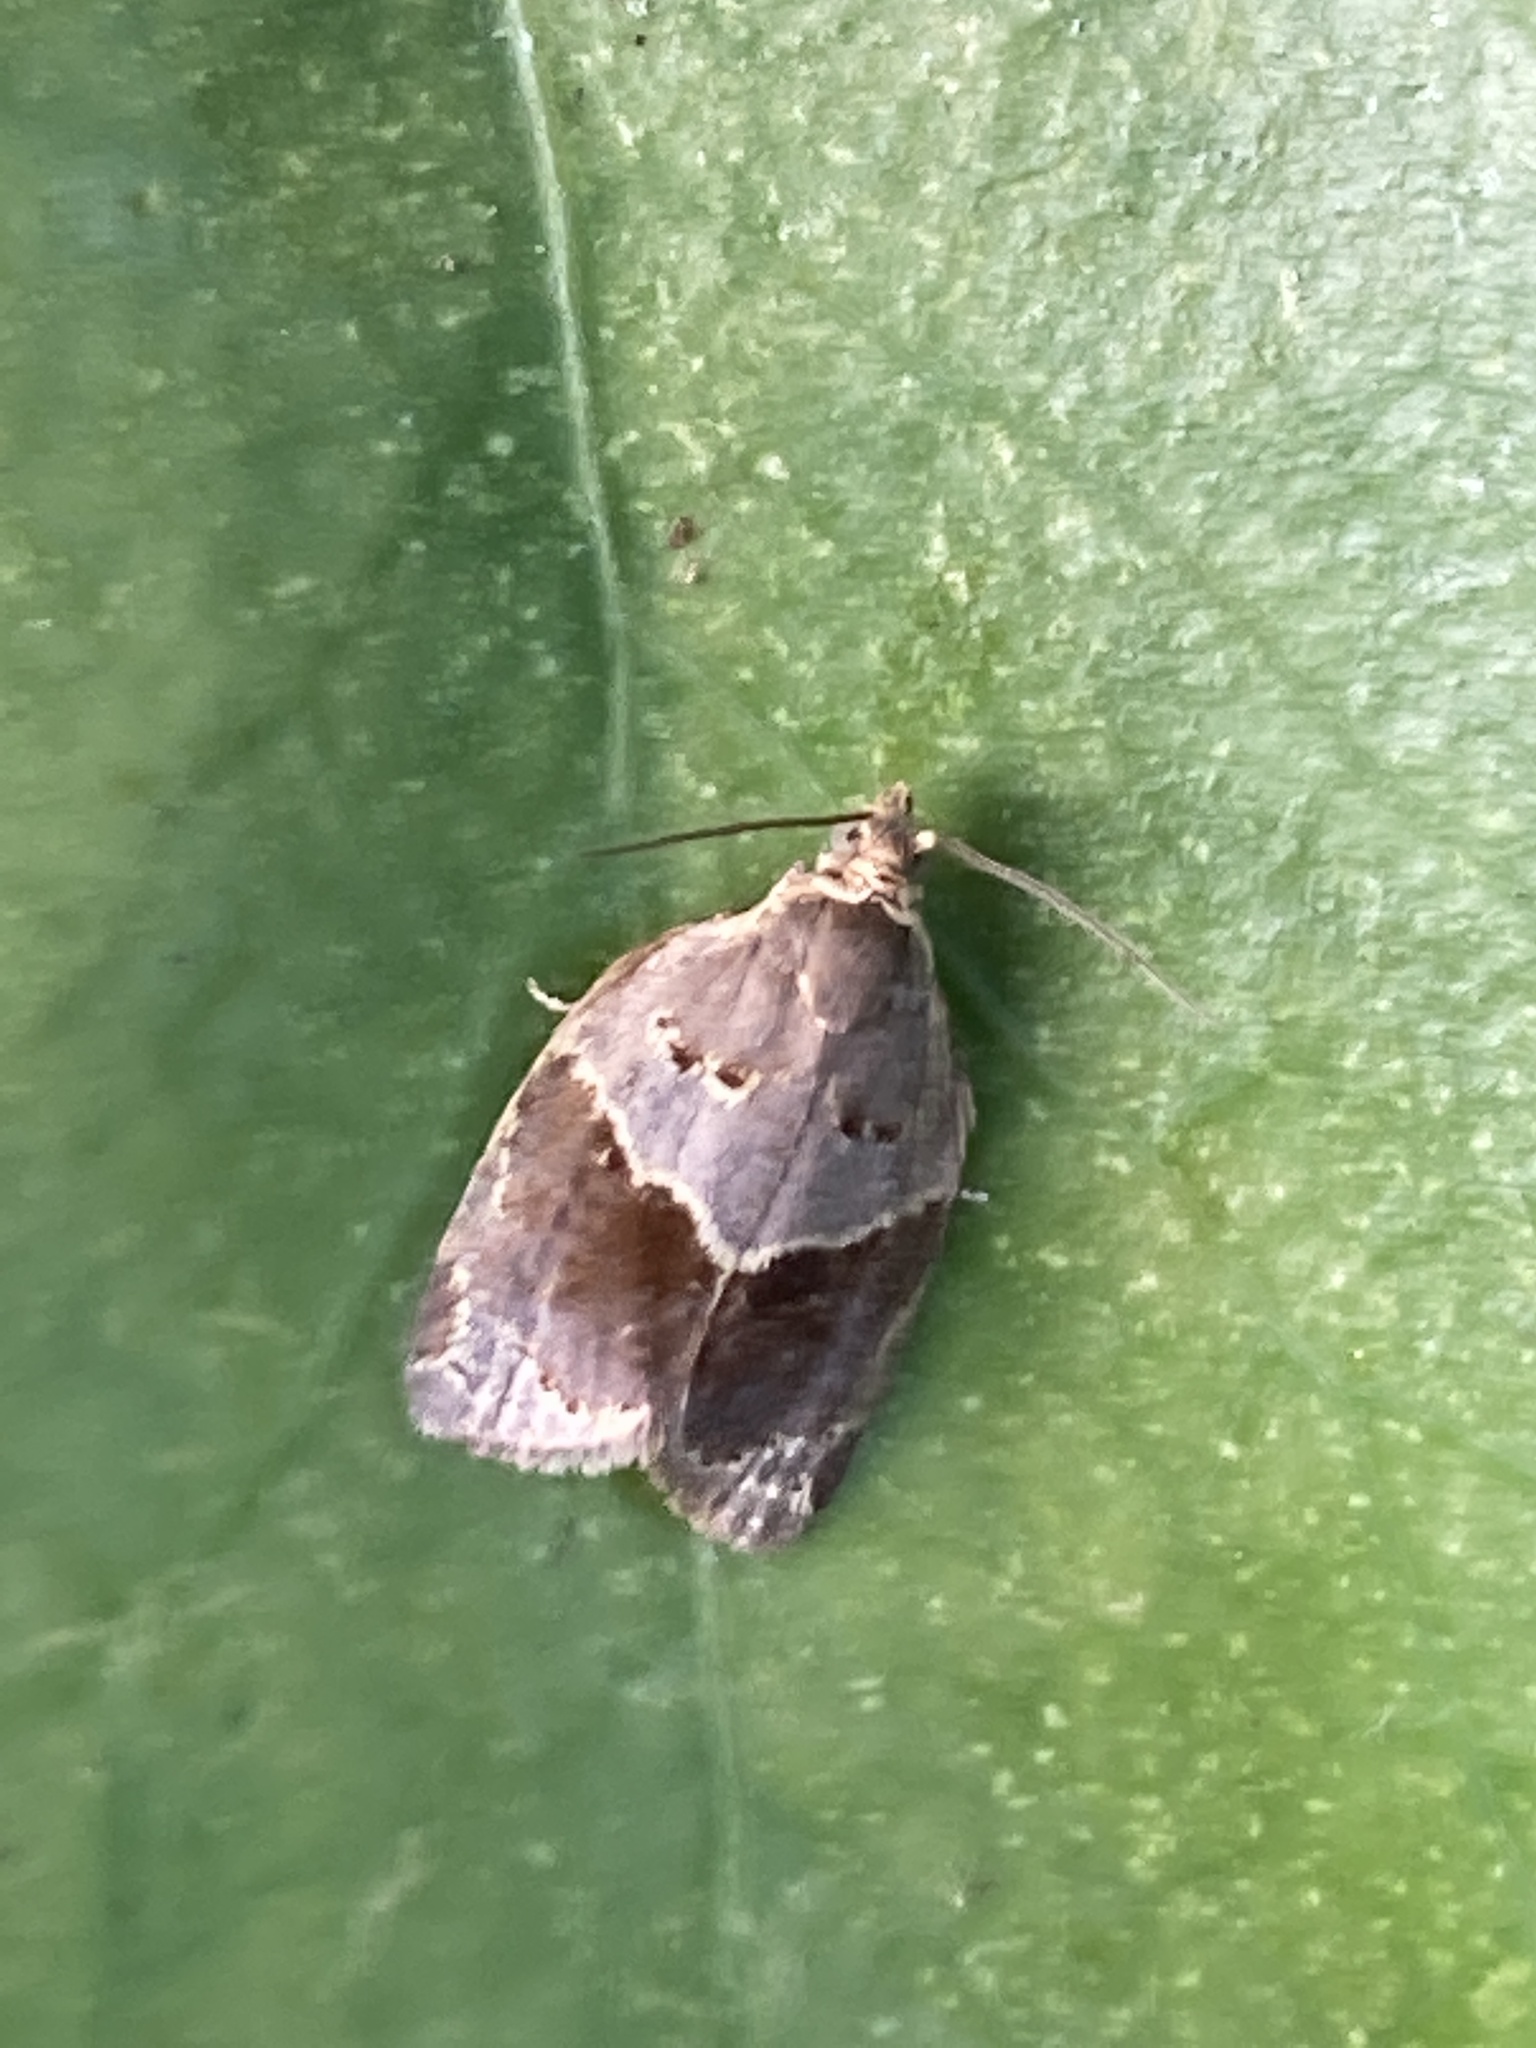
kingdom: Animalia
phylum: Arthropoda
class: Insecta
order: Lepidoptera
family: Tortricidae
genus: Clepsis
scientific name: Clepsis dumicolana
